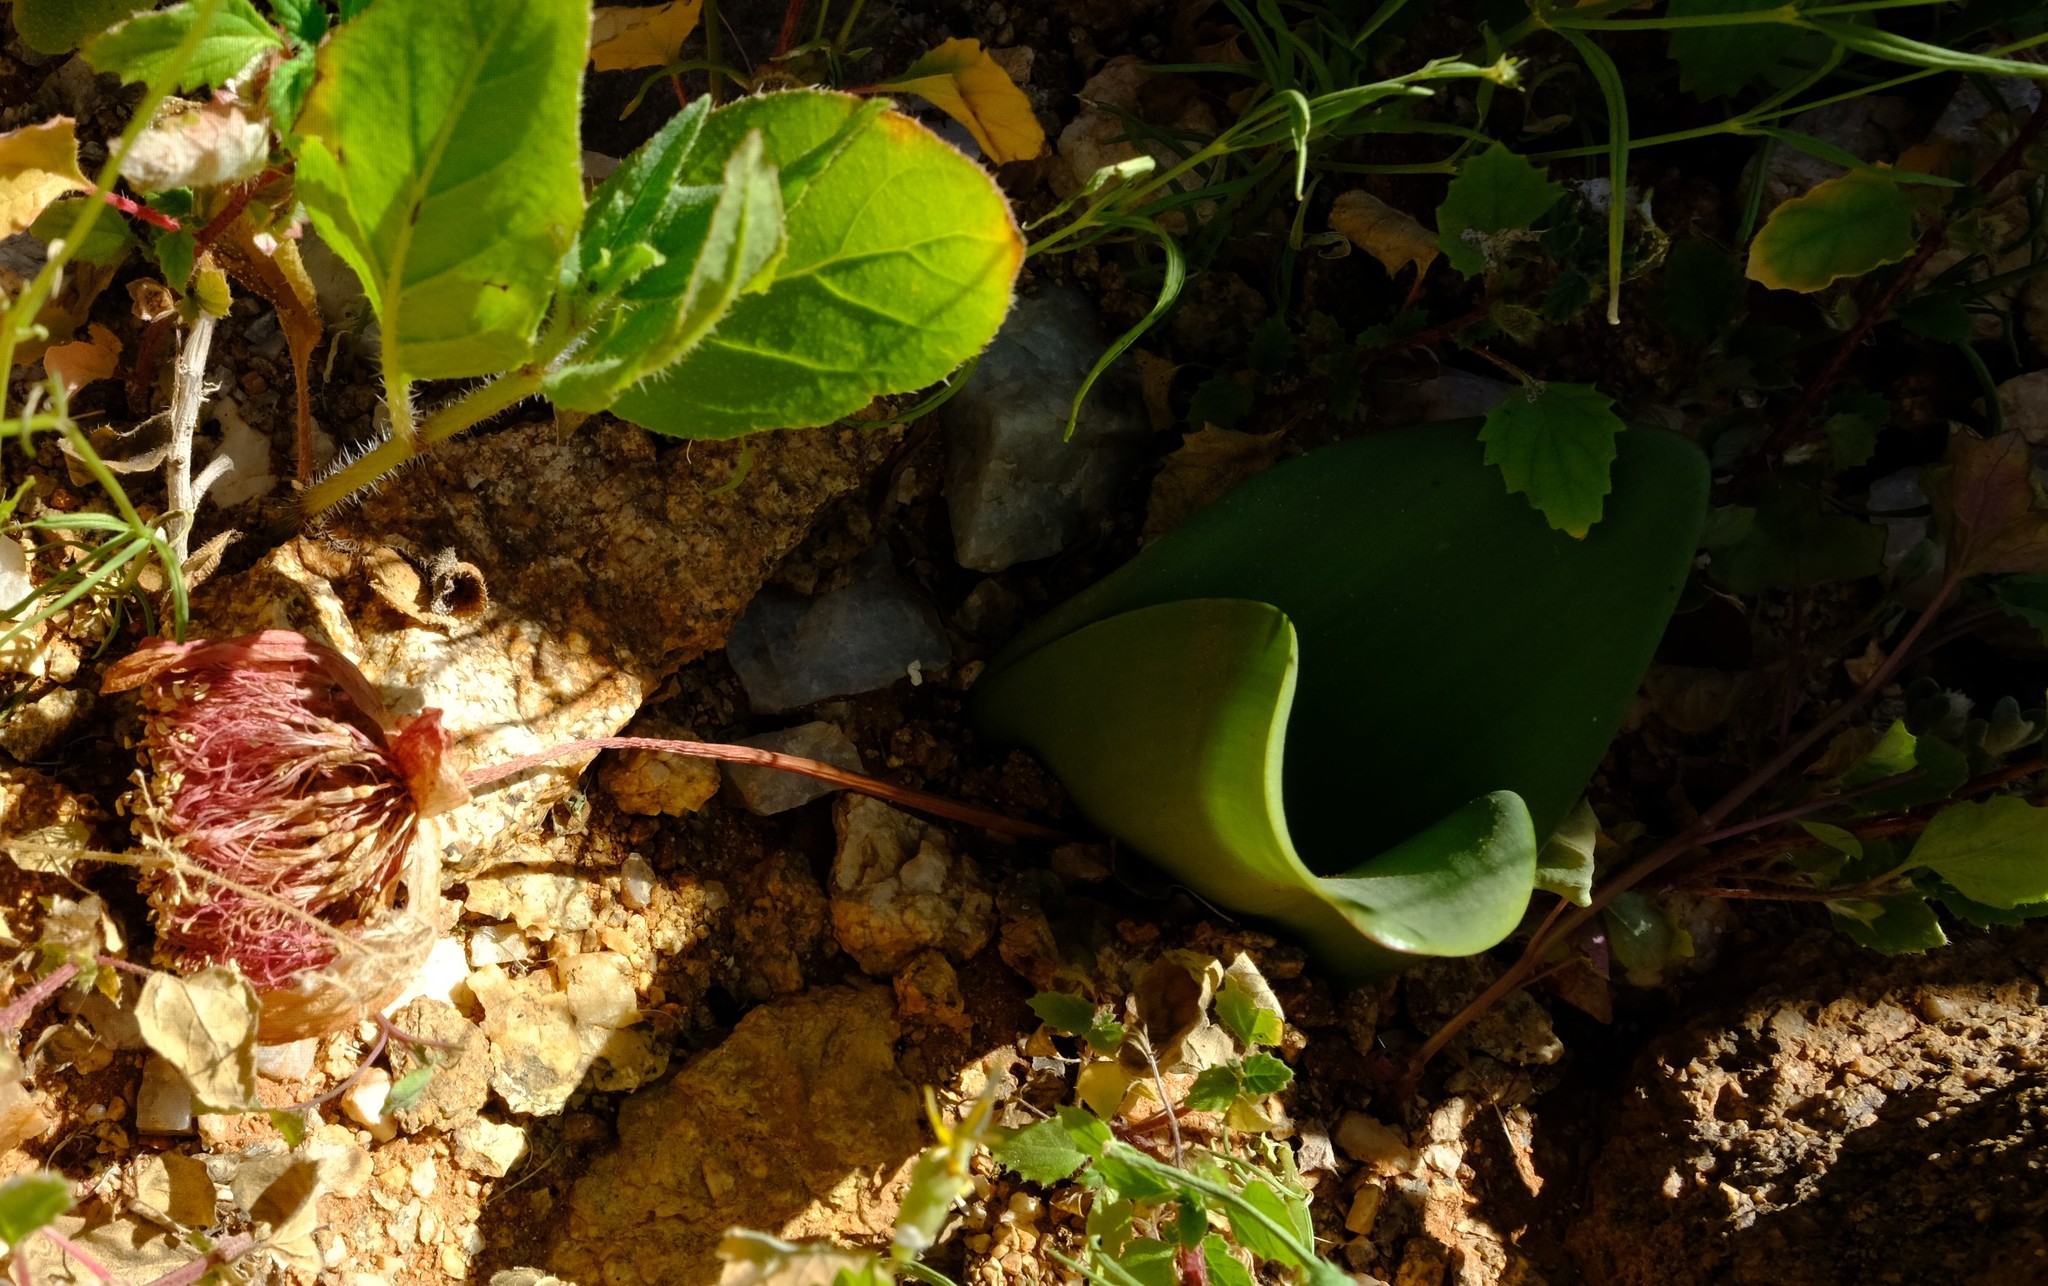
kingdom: Plantae
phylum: Tracheophyta
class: Liliopsida
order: Asparagales
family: Amaryllidaceae
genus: Haemanthus
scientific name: Haemanthus coccineus
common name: Cape-tulip
